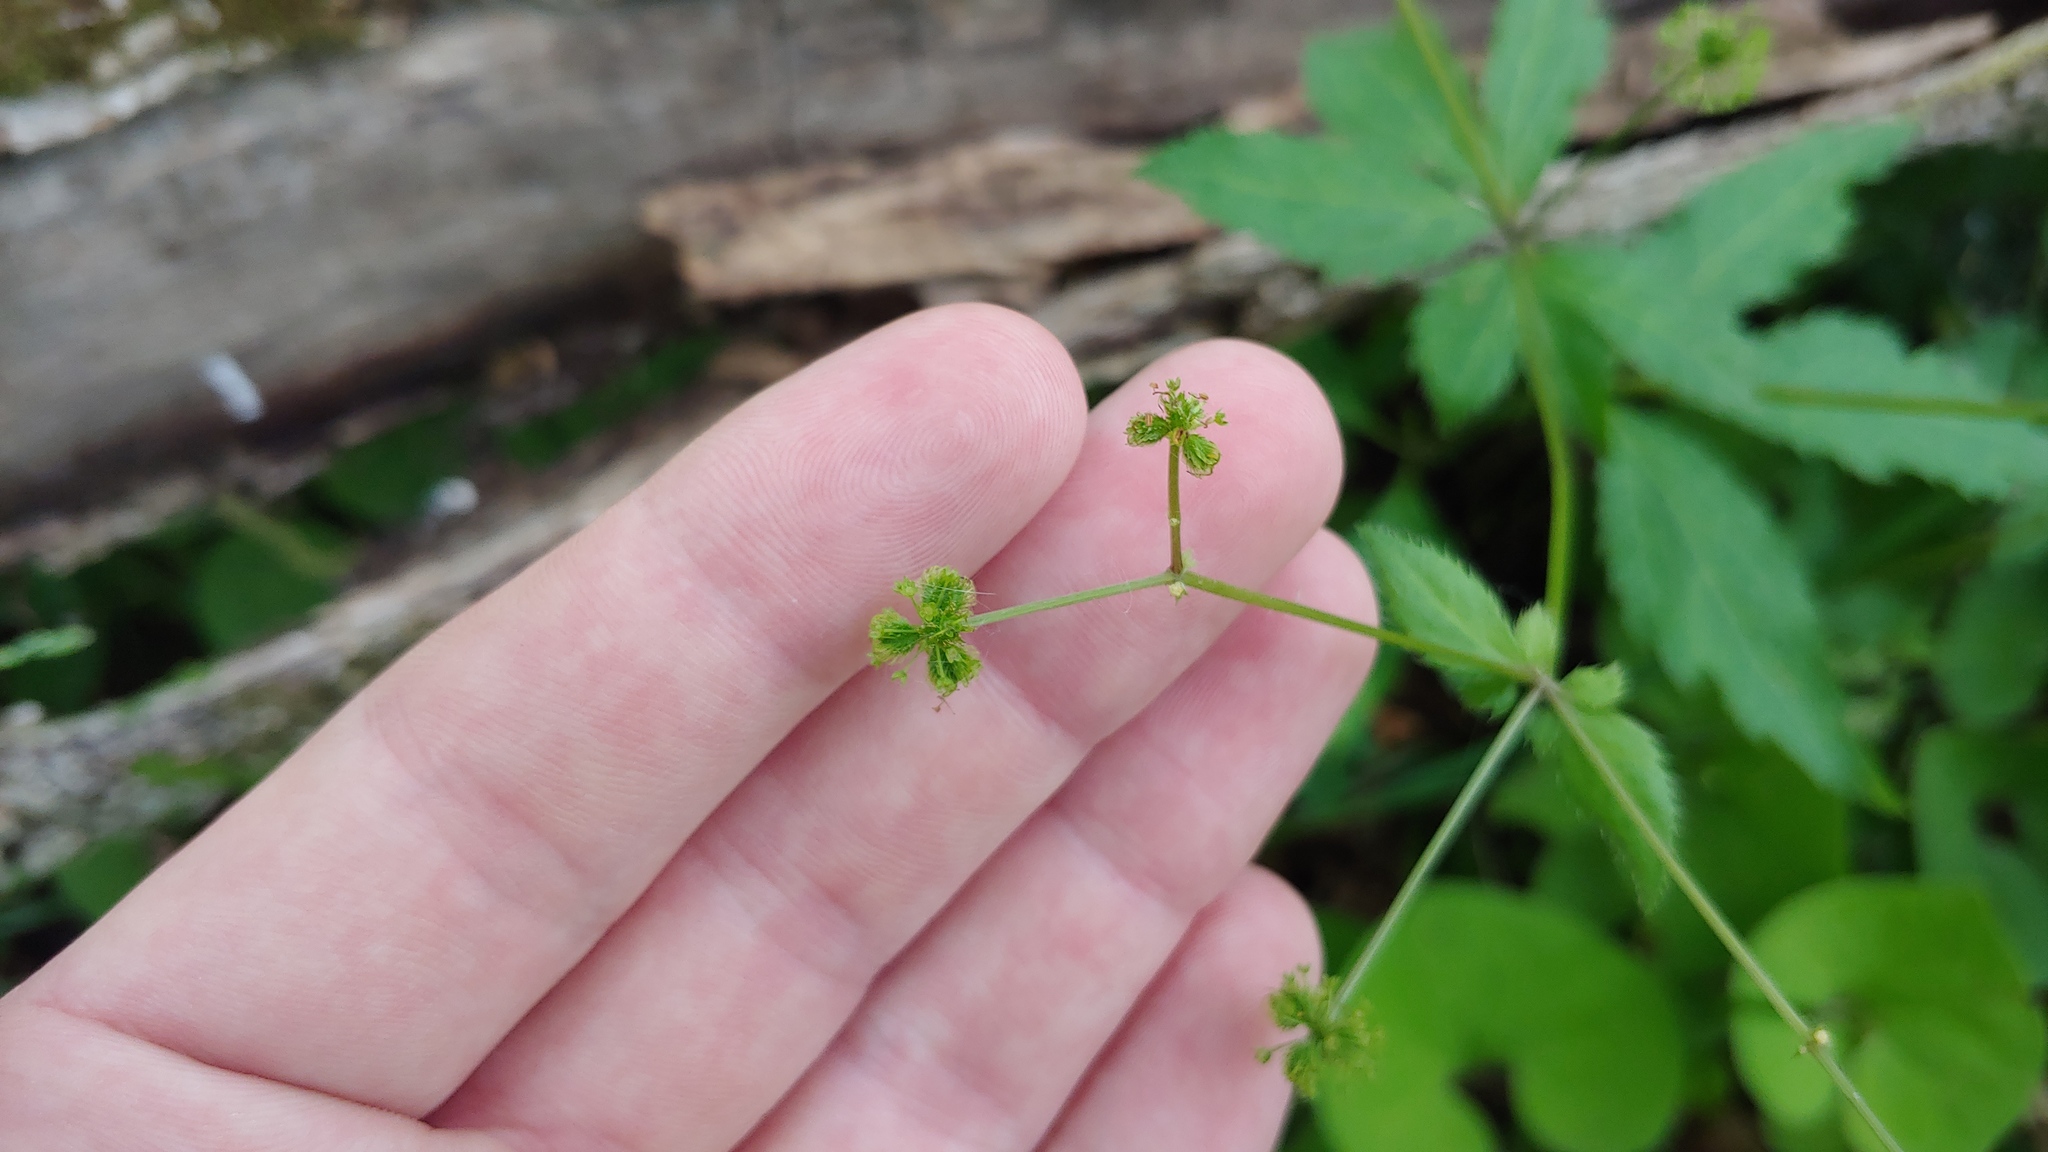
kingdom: Plantae
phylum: Tracheophyta
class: Magnoliopsida
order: Apiales
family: Apiaceae
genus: Sanicula
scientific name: Sanicula odorata
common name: Cluster sanicle
